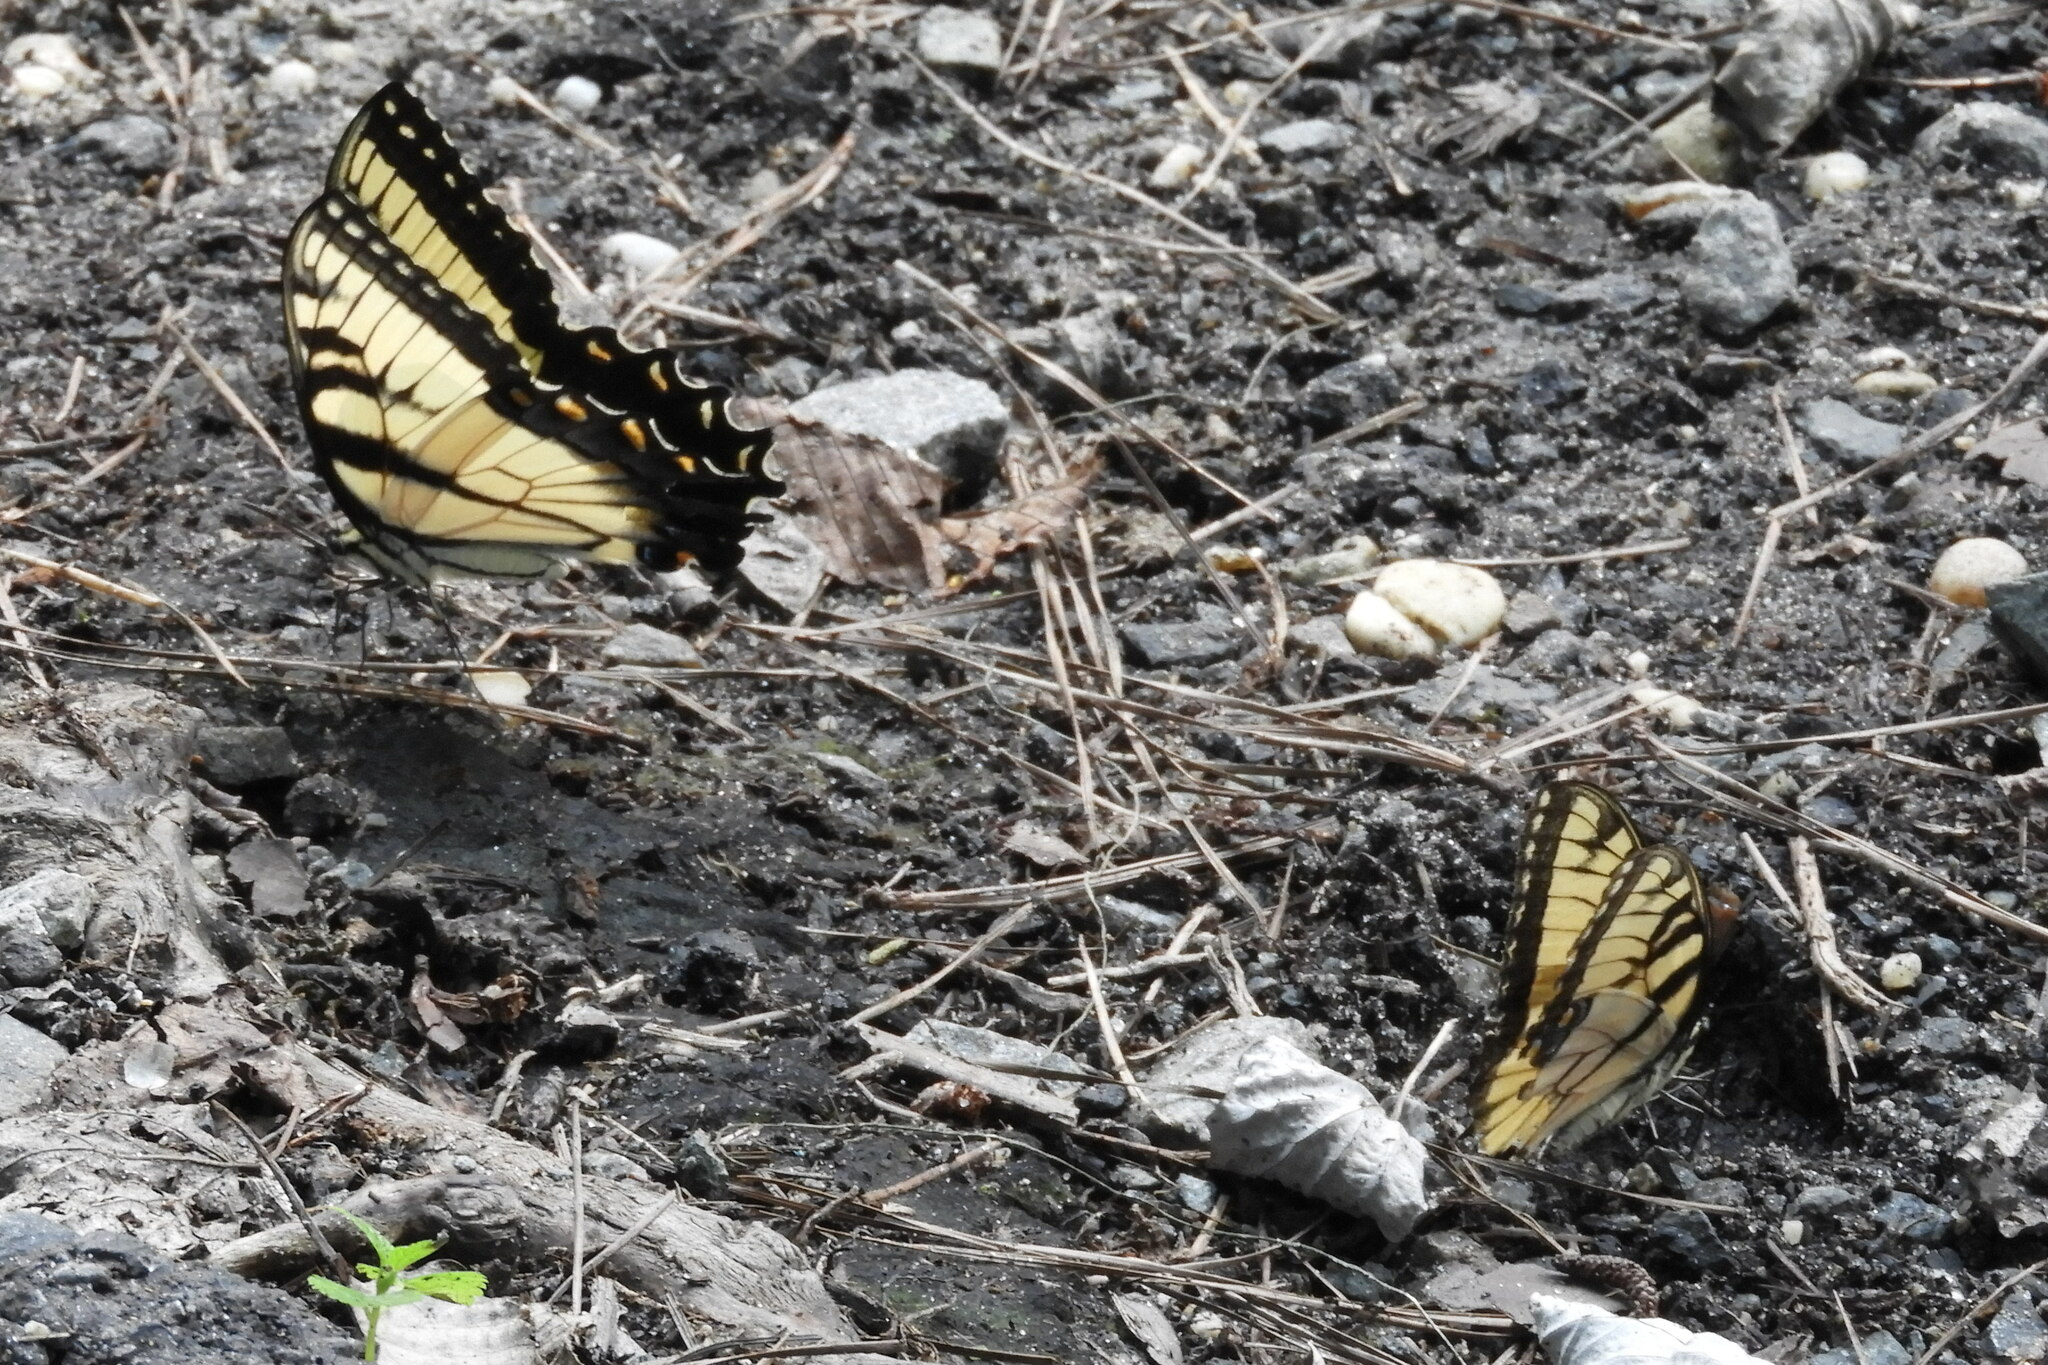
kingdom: Animalia
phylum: Arthropoda
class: Insecta
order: Lepidoptera
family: Papilionidae
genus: Papilio
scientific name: Papilio glaucus
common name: Tiger swallowtail
